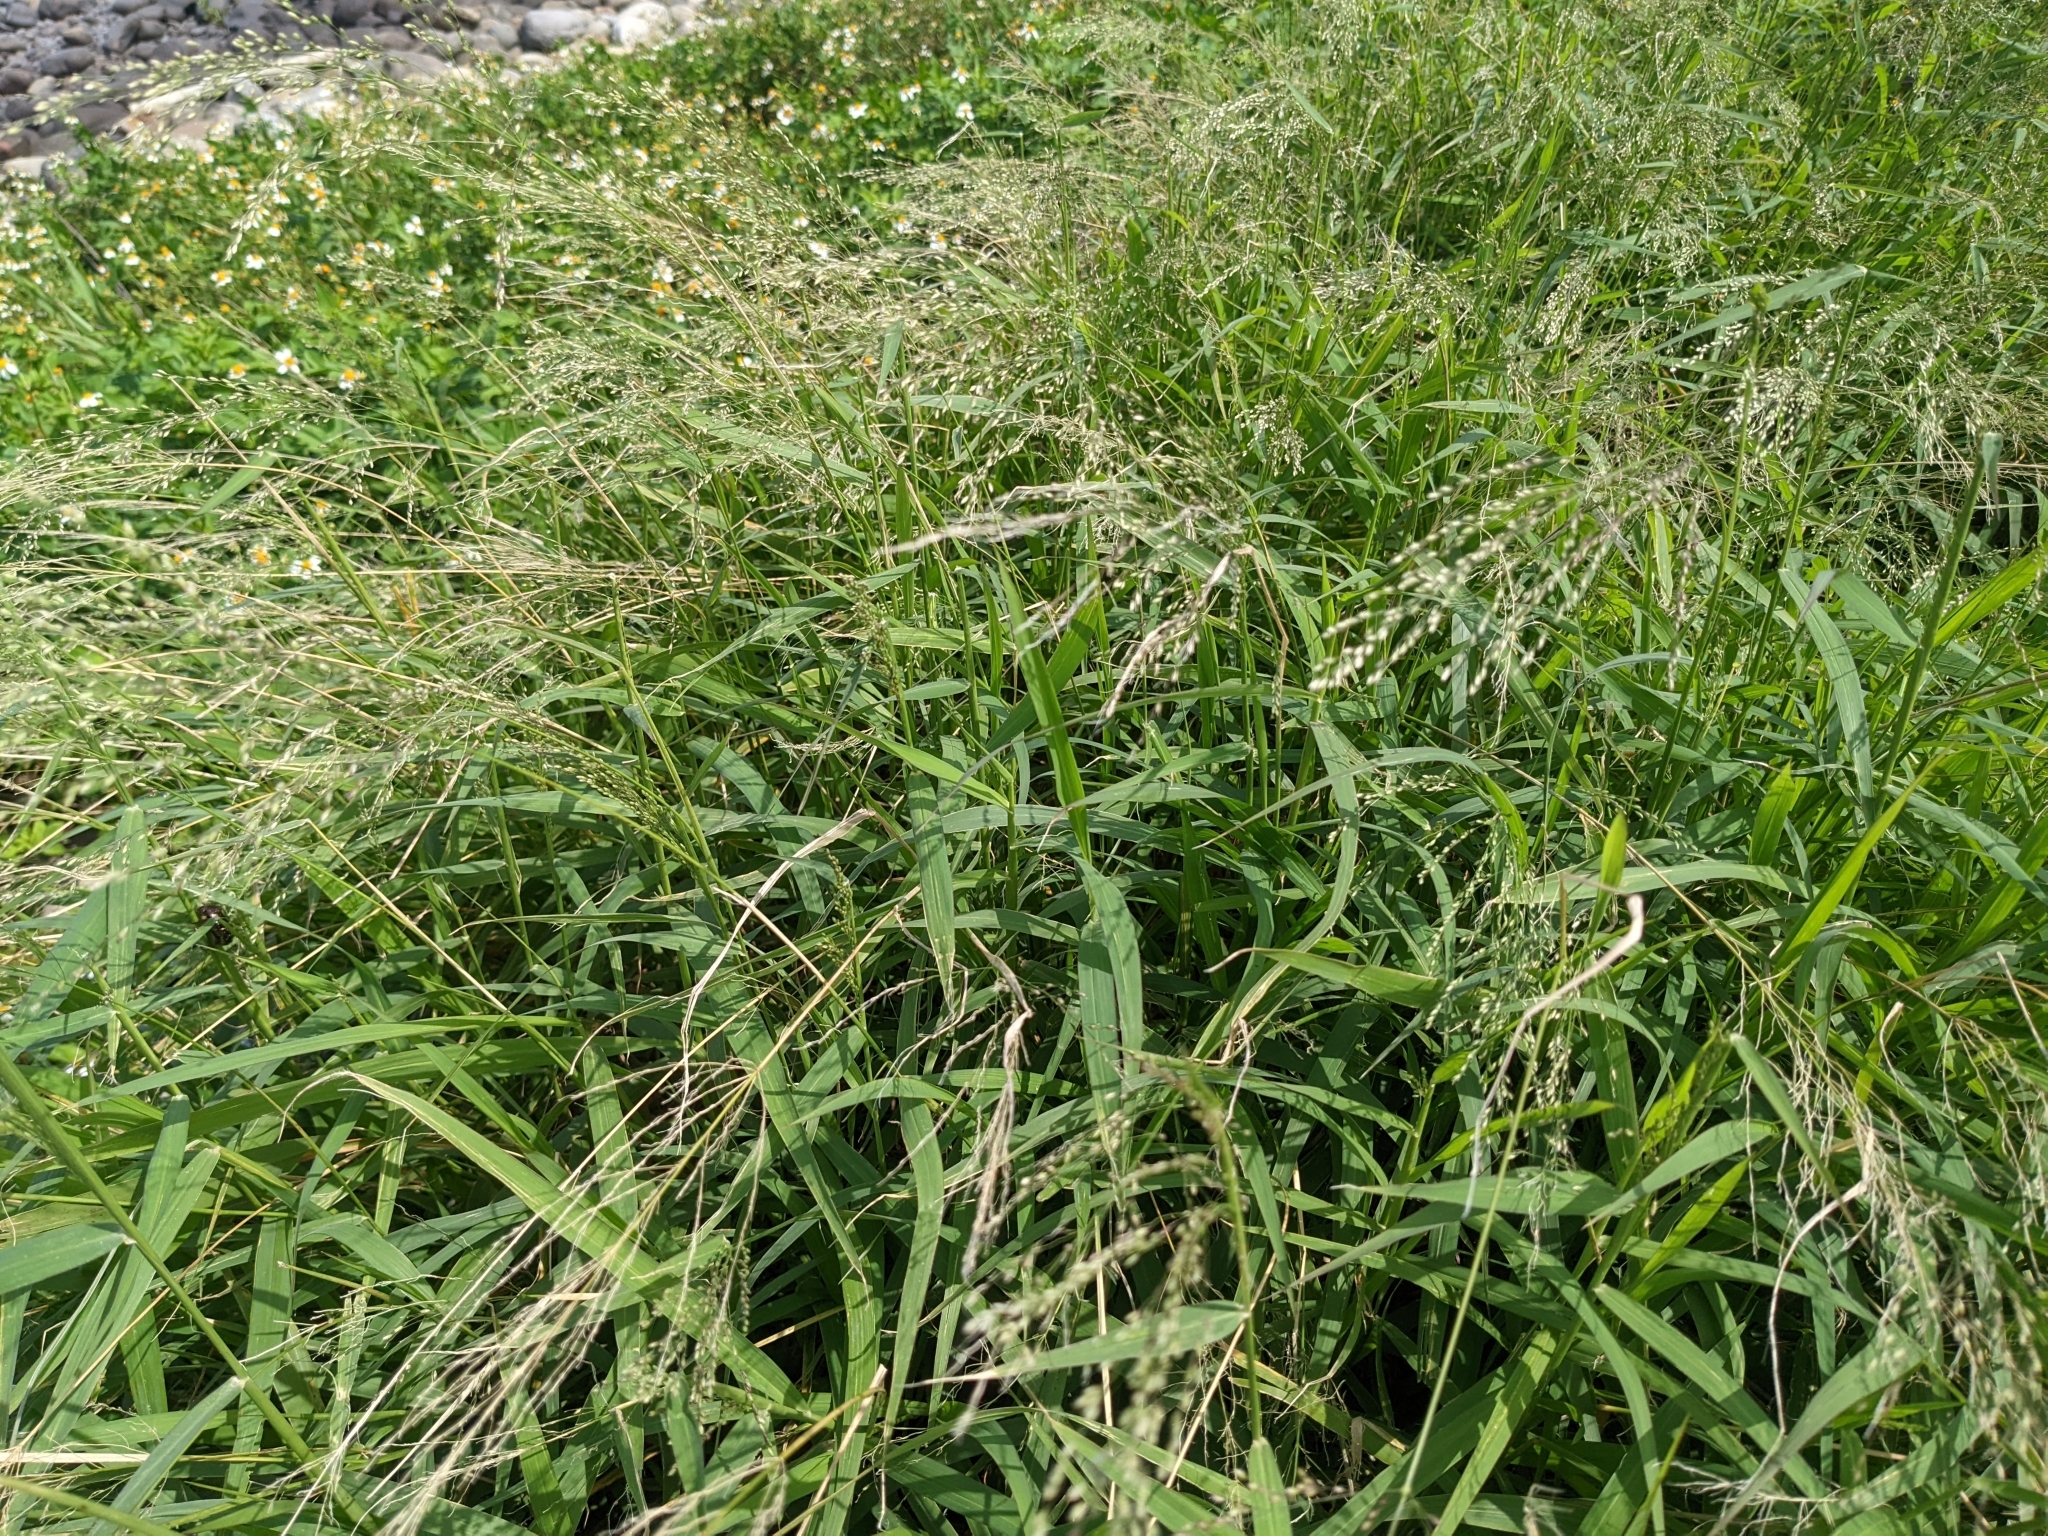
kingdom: Plantae
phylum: Tracheophyta
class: Liliopsida
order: Poales
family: Poaceae
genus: Megathyrsus
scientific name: Megathyrsus maximus
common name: Guineagrass
